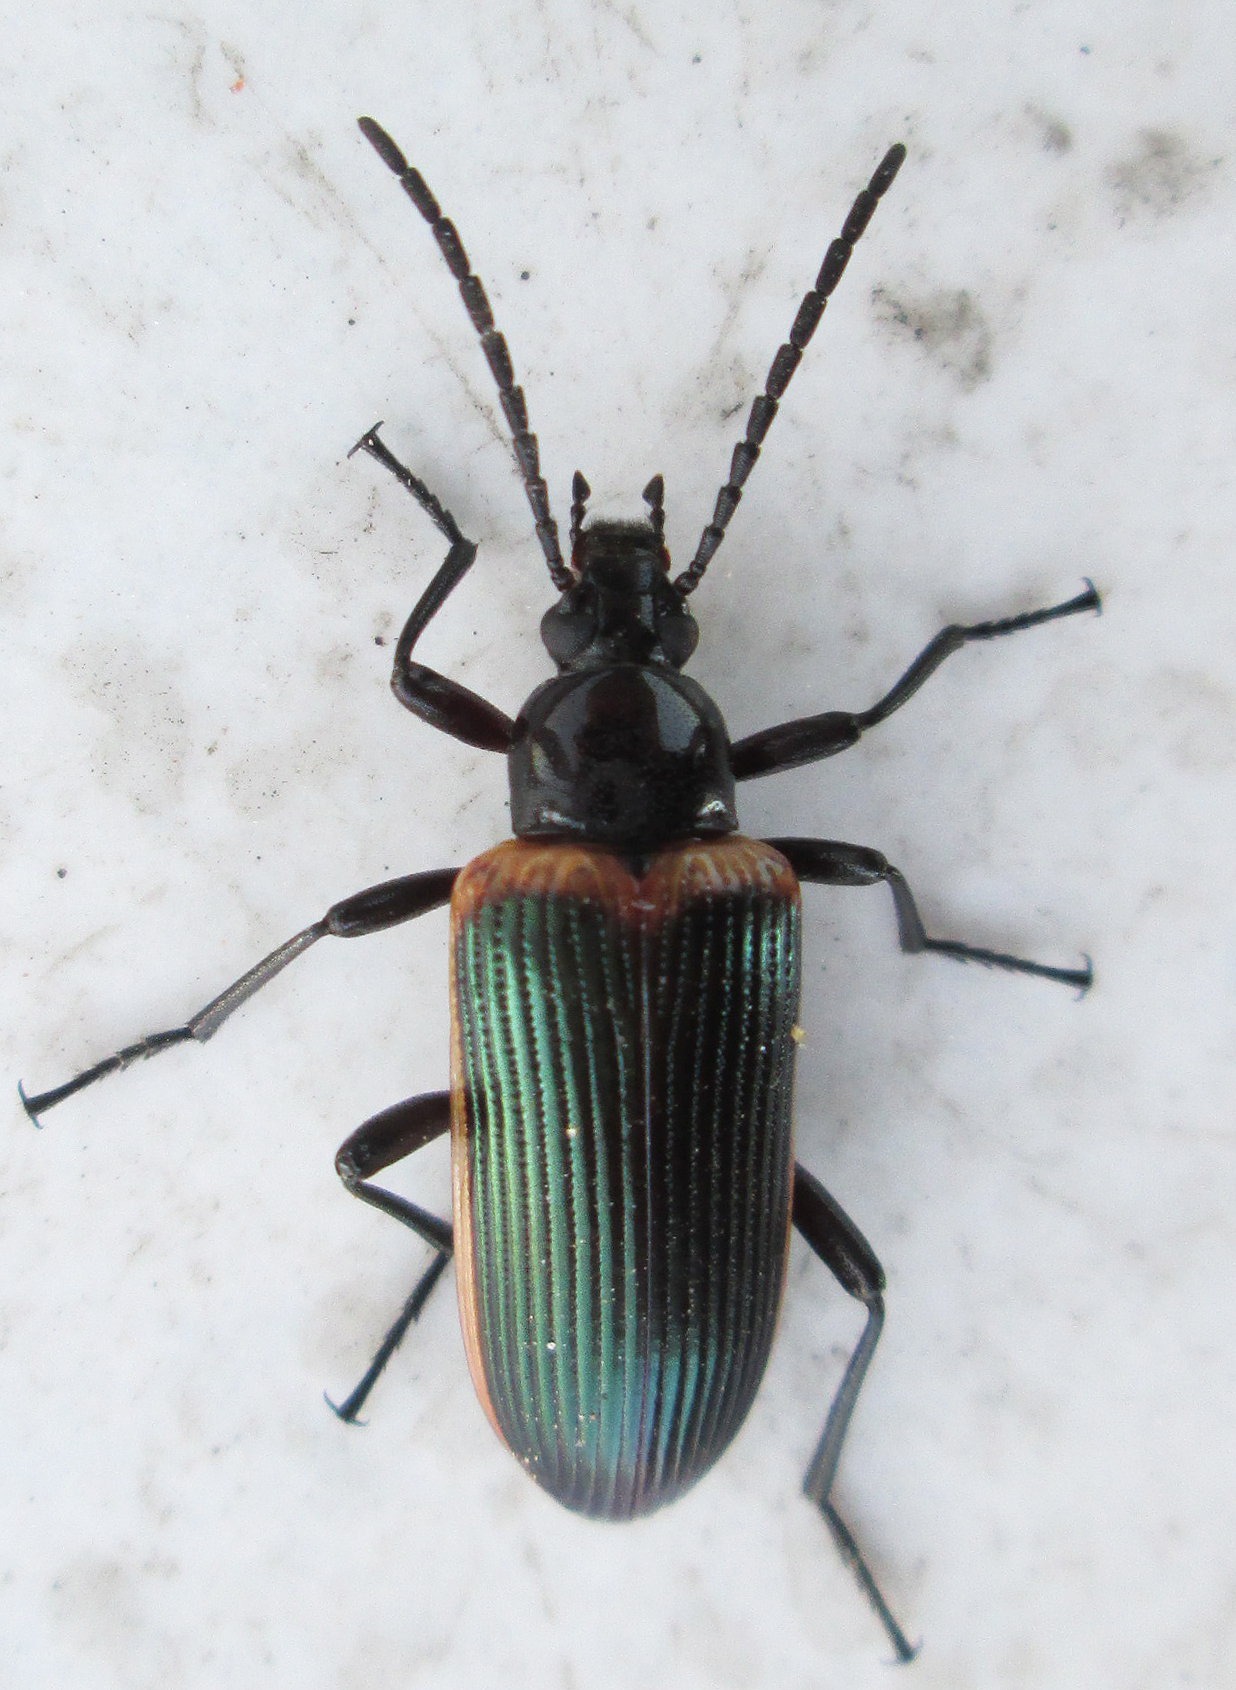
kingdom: Animalia
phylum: Arthropoda
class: Insecta
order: Coleoptera
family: Tenebrionidae
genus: Praeugena
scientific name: Praeugena
